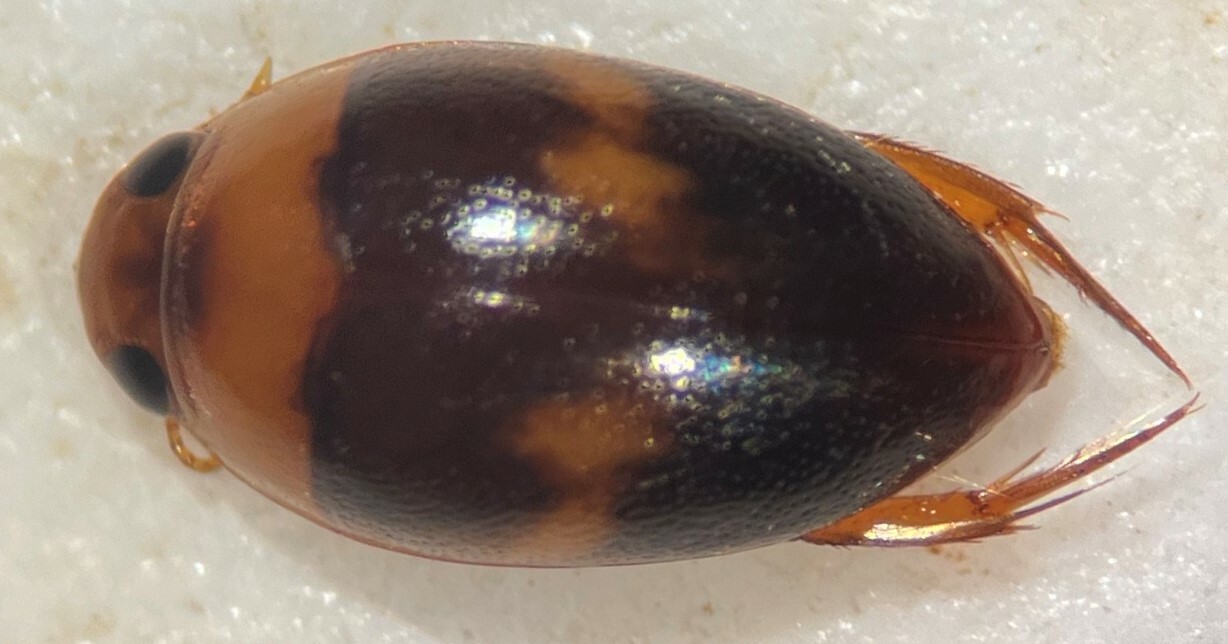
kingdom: Animalia
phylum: Arthropoda
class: Insecta
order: Coleoptera
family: Noteridae
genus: Suphisellus
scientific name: Suphisellus puncticollis
